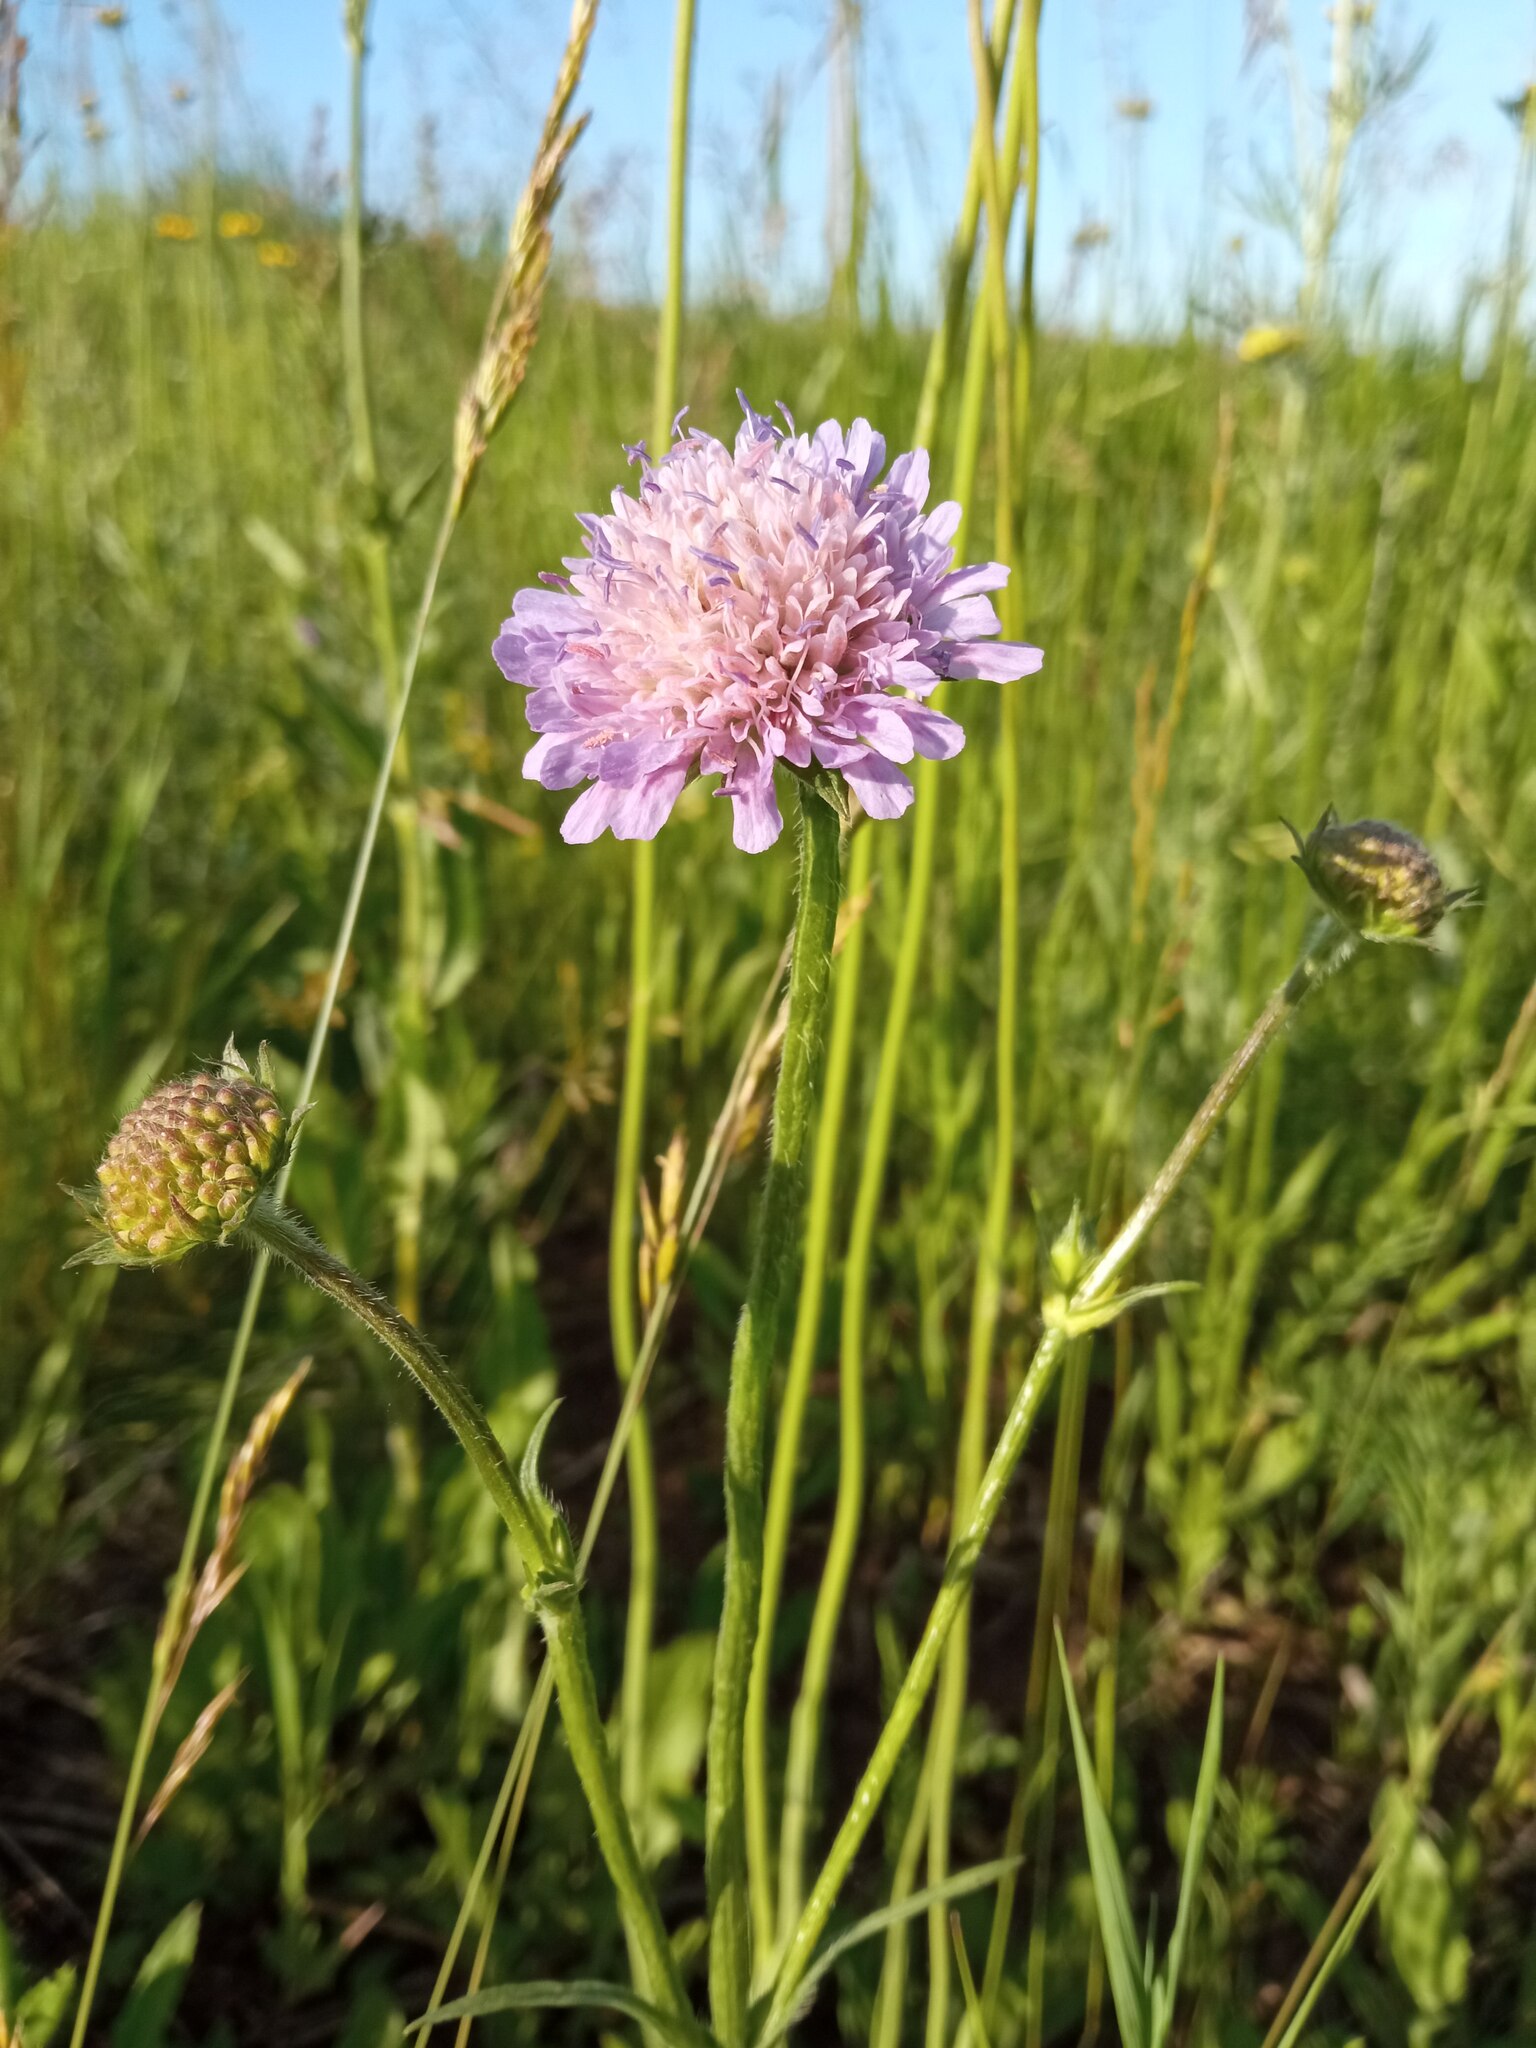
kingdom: Plantae
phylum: Tracheophyta
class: Magnoliopsida
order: Dipsacales
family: Caprifoliaceae
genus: Knautia
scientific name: Knautia arvensis
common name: Field scabiosa
